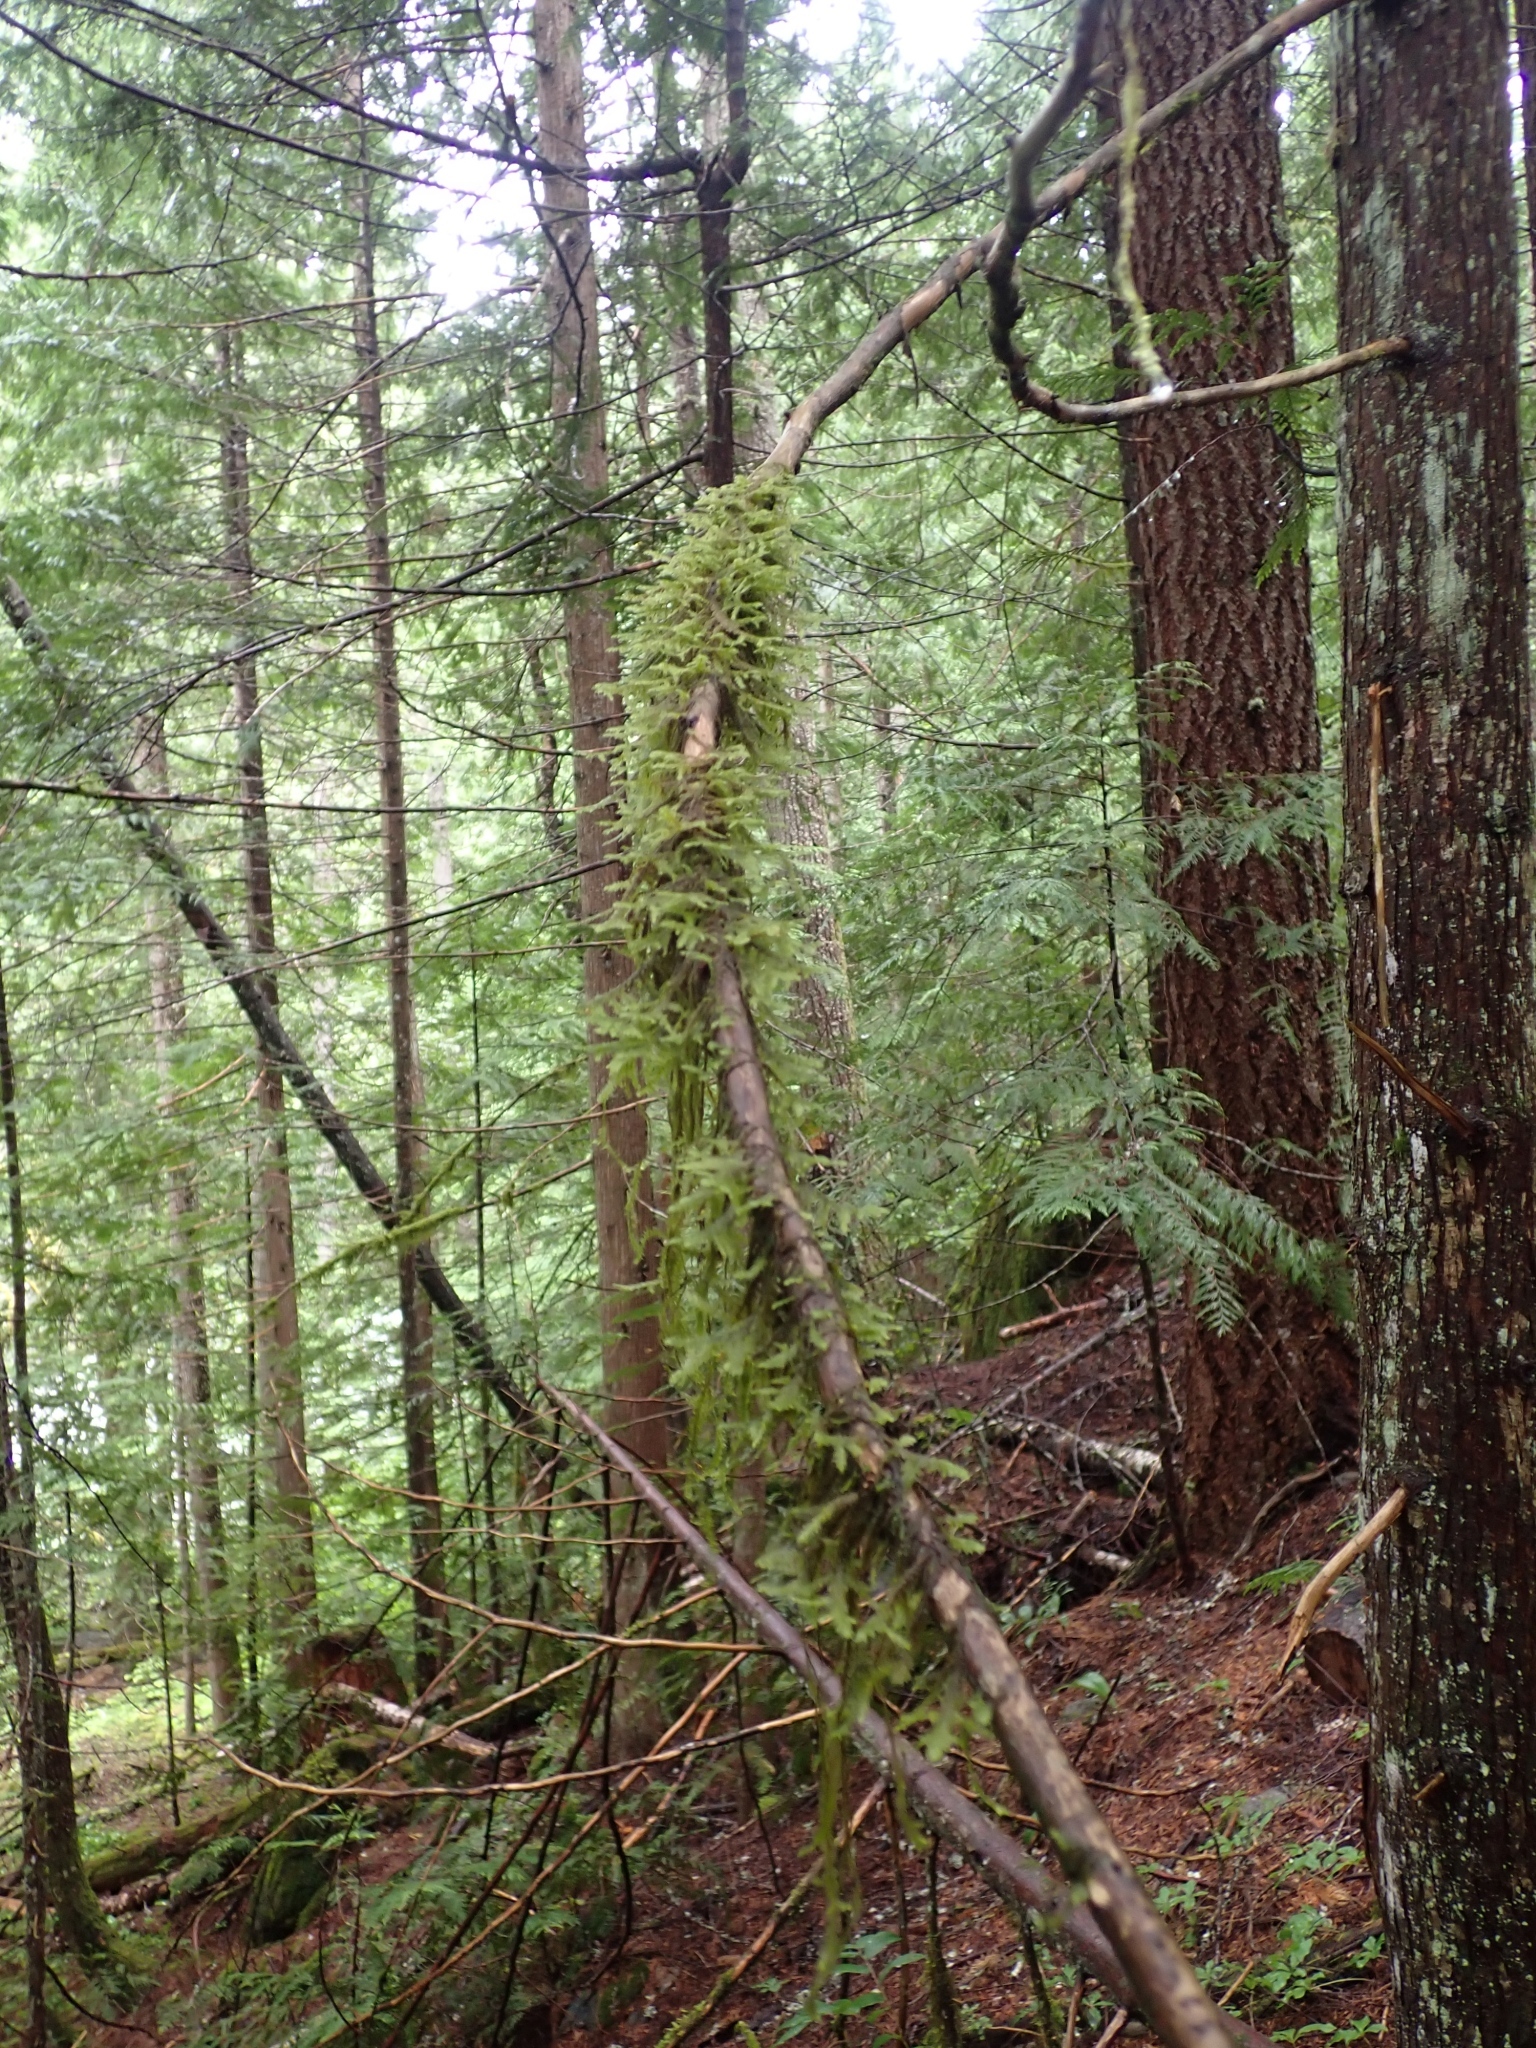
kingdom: Plantae
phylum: Bryophyta
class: Bryopsida
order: Hypnales
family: Neckeraceae
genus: Neckera
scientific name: Neckera douglasii
